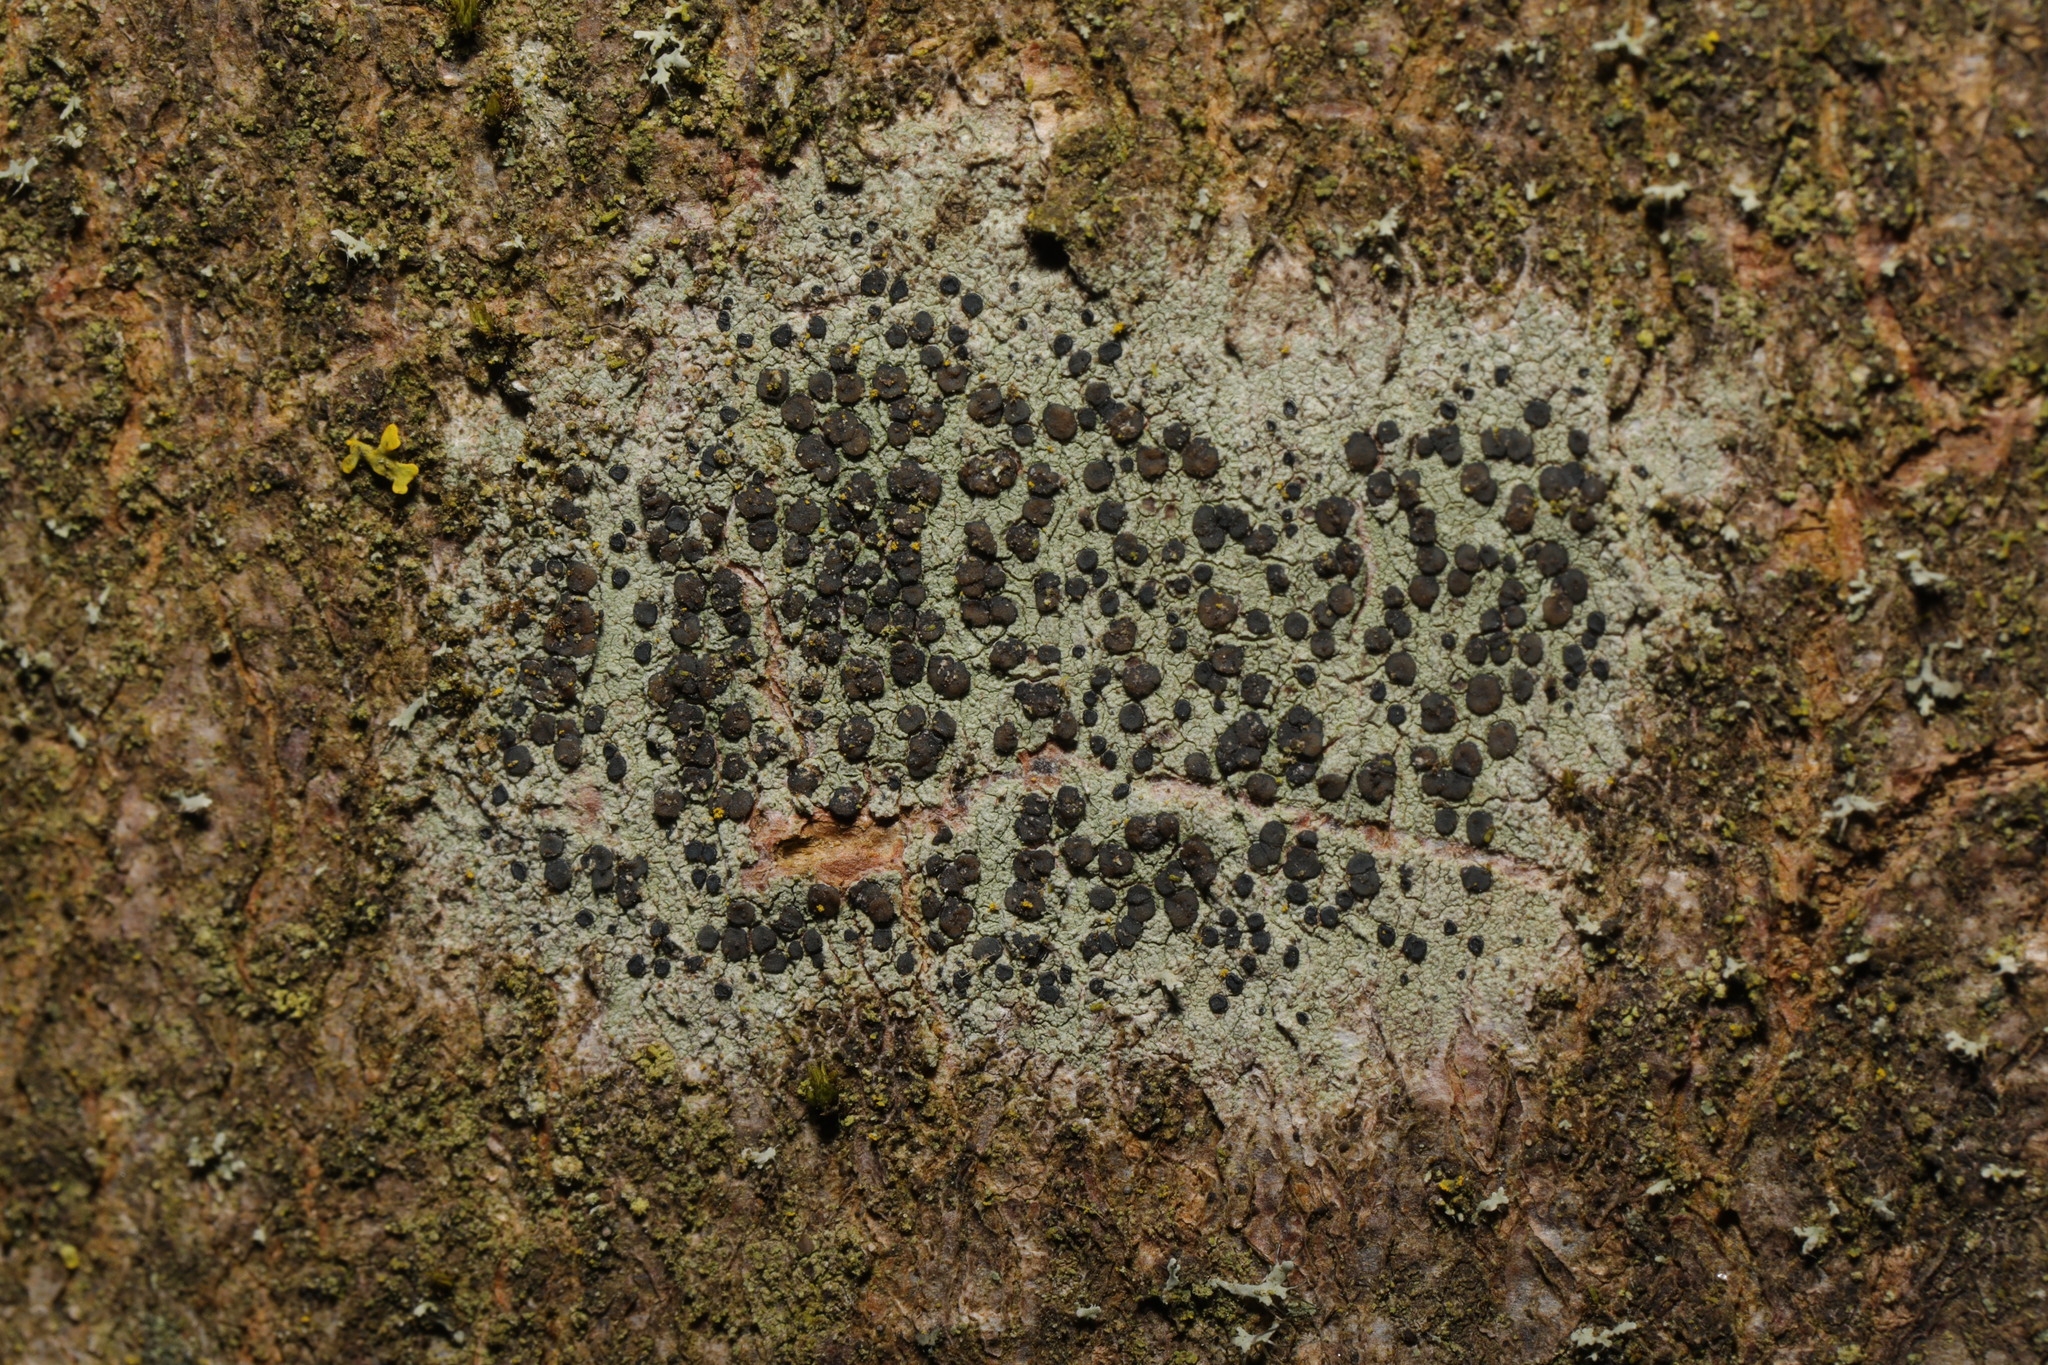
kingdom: Fungi
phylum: Ascomycota
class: Lecanoromycetes
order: Lecanorales
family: Lecanoraceae
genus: Lecidella
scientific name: Lecidella elaeochroma
